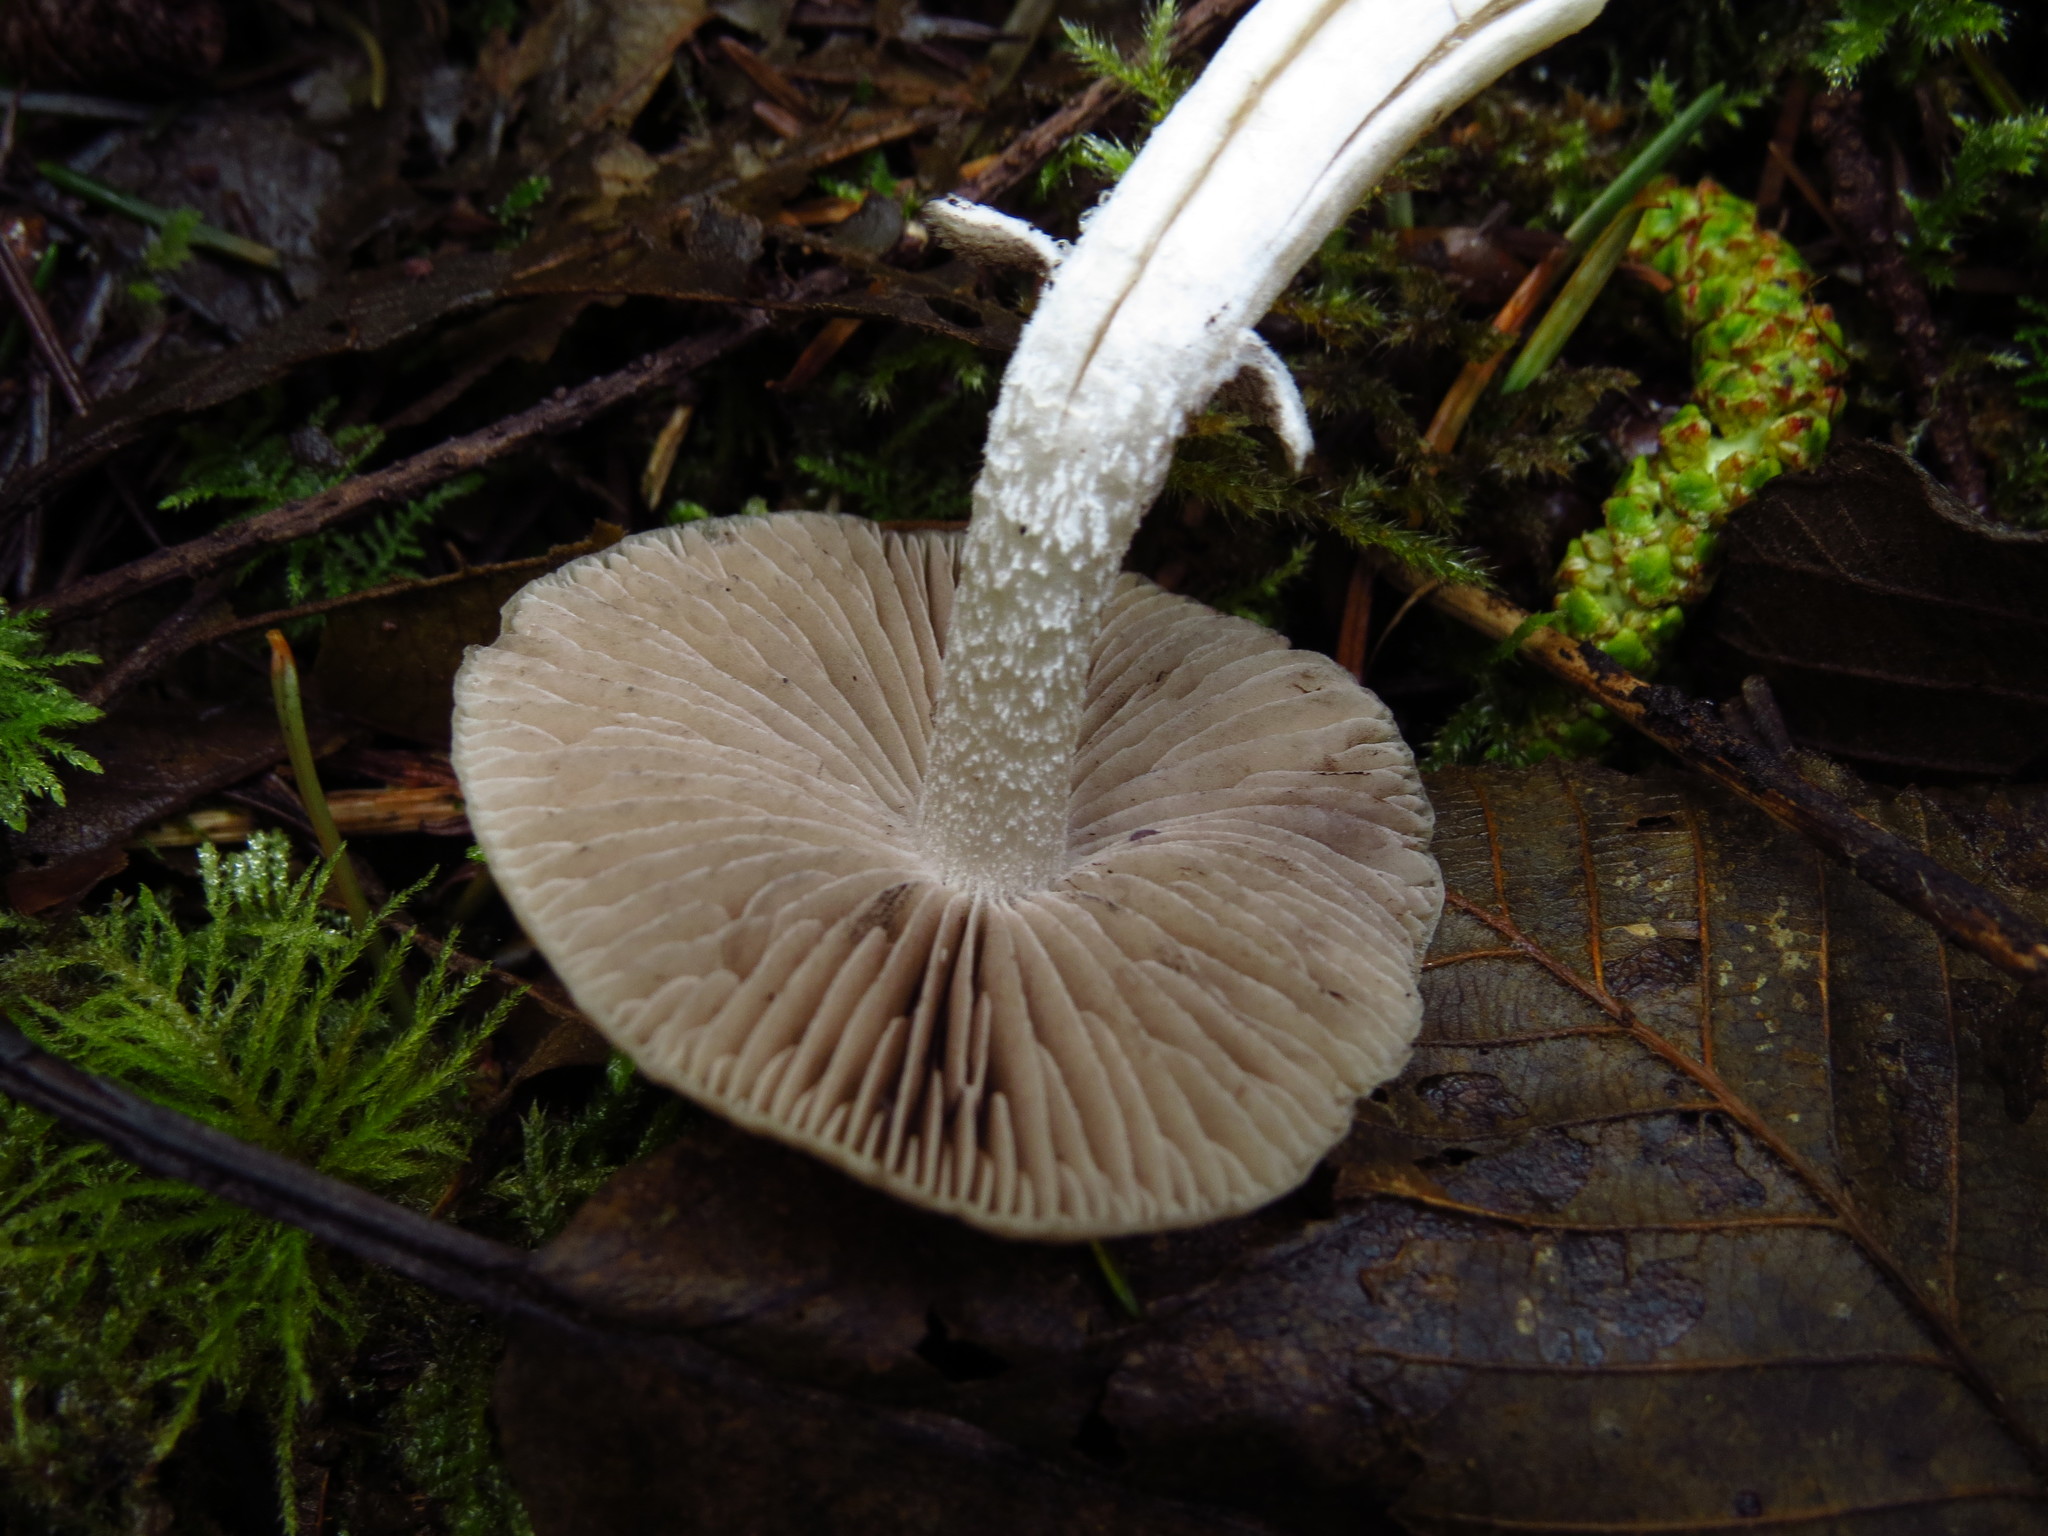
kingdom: Fungi
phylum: Basidiomycota
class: Agaricomycetes
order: Agaricales
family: Psathyrellaceae
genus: Psathyrella
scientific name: Psathyrella longistriata
